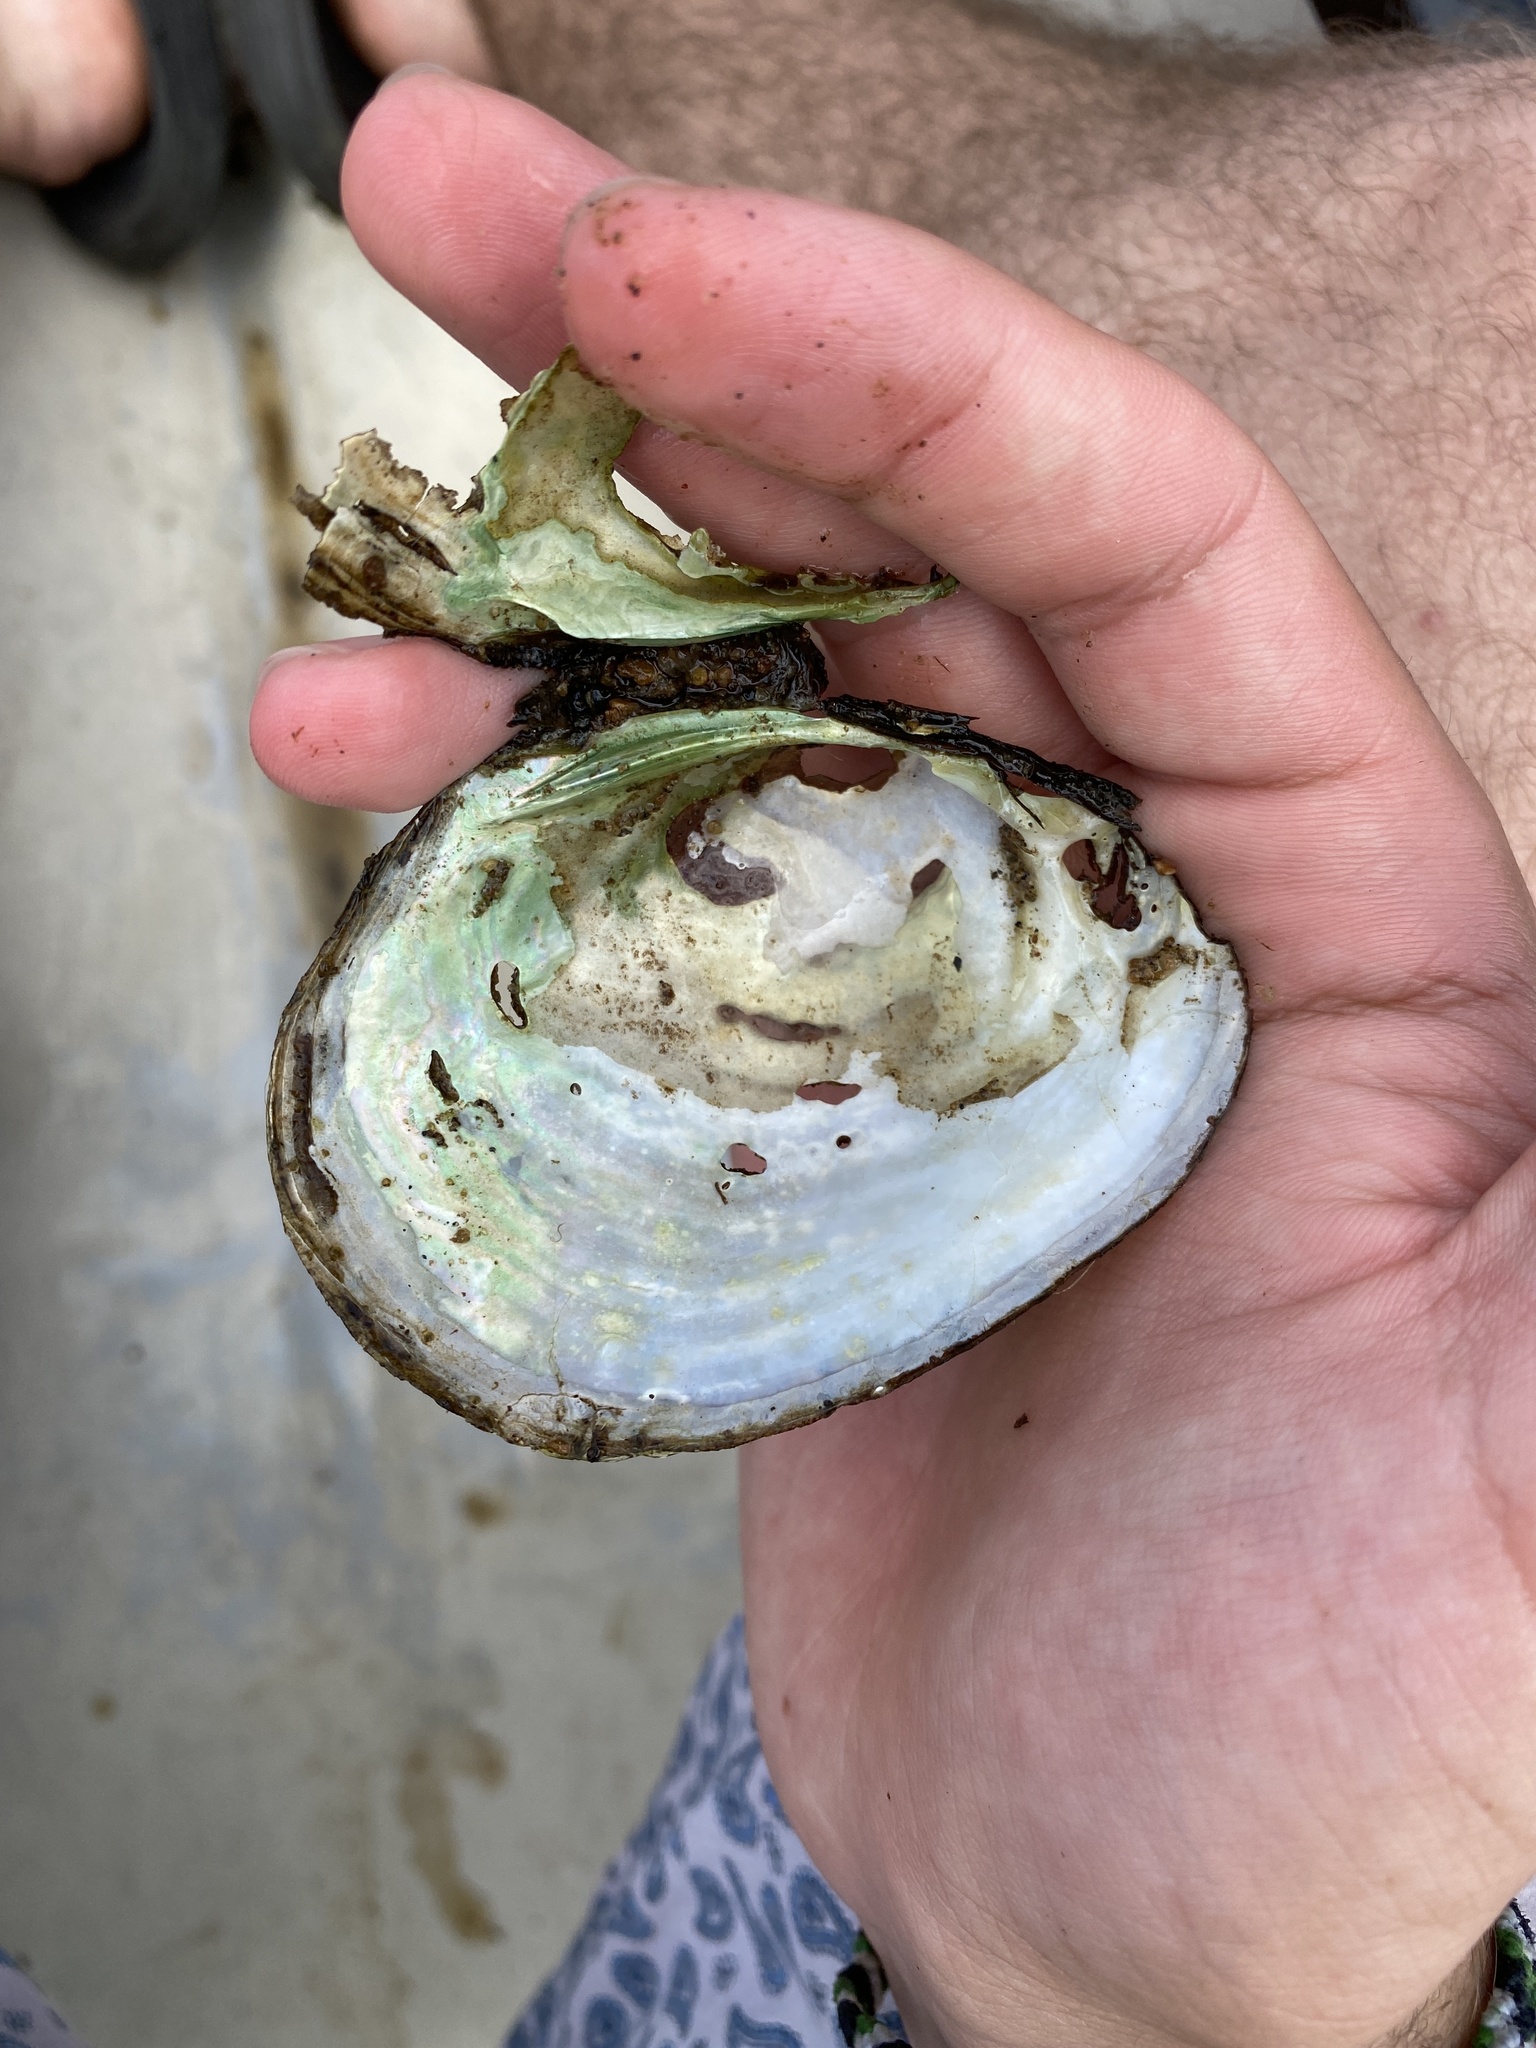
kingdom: Animalia
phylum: Mollusca
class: Bivalvia
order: Unionida
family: Unionidae
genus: Lampsilis
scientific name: Lampsilis cardium
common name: Plain pocketbook
